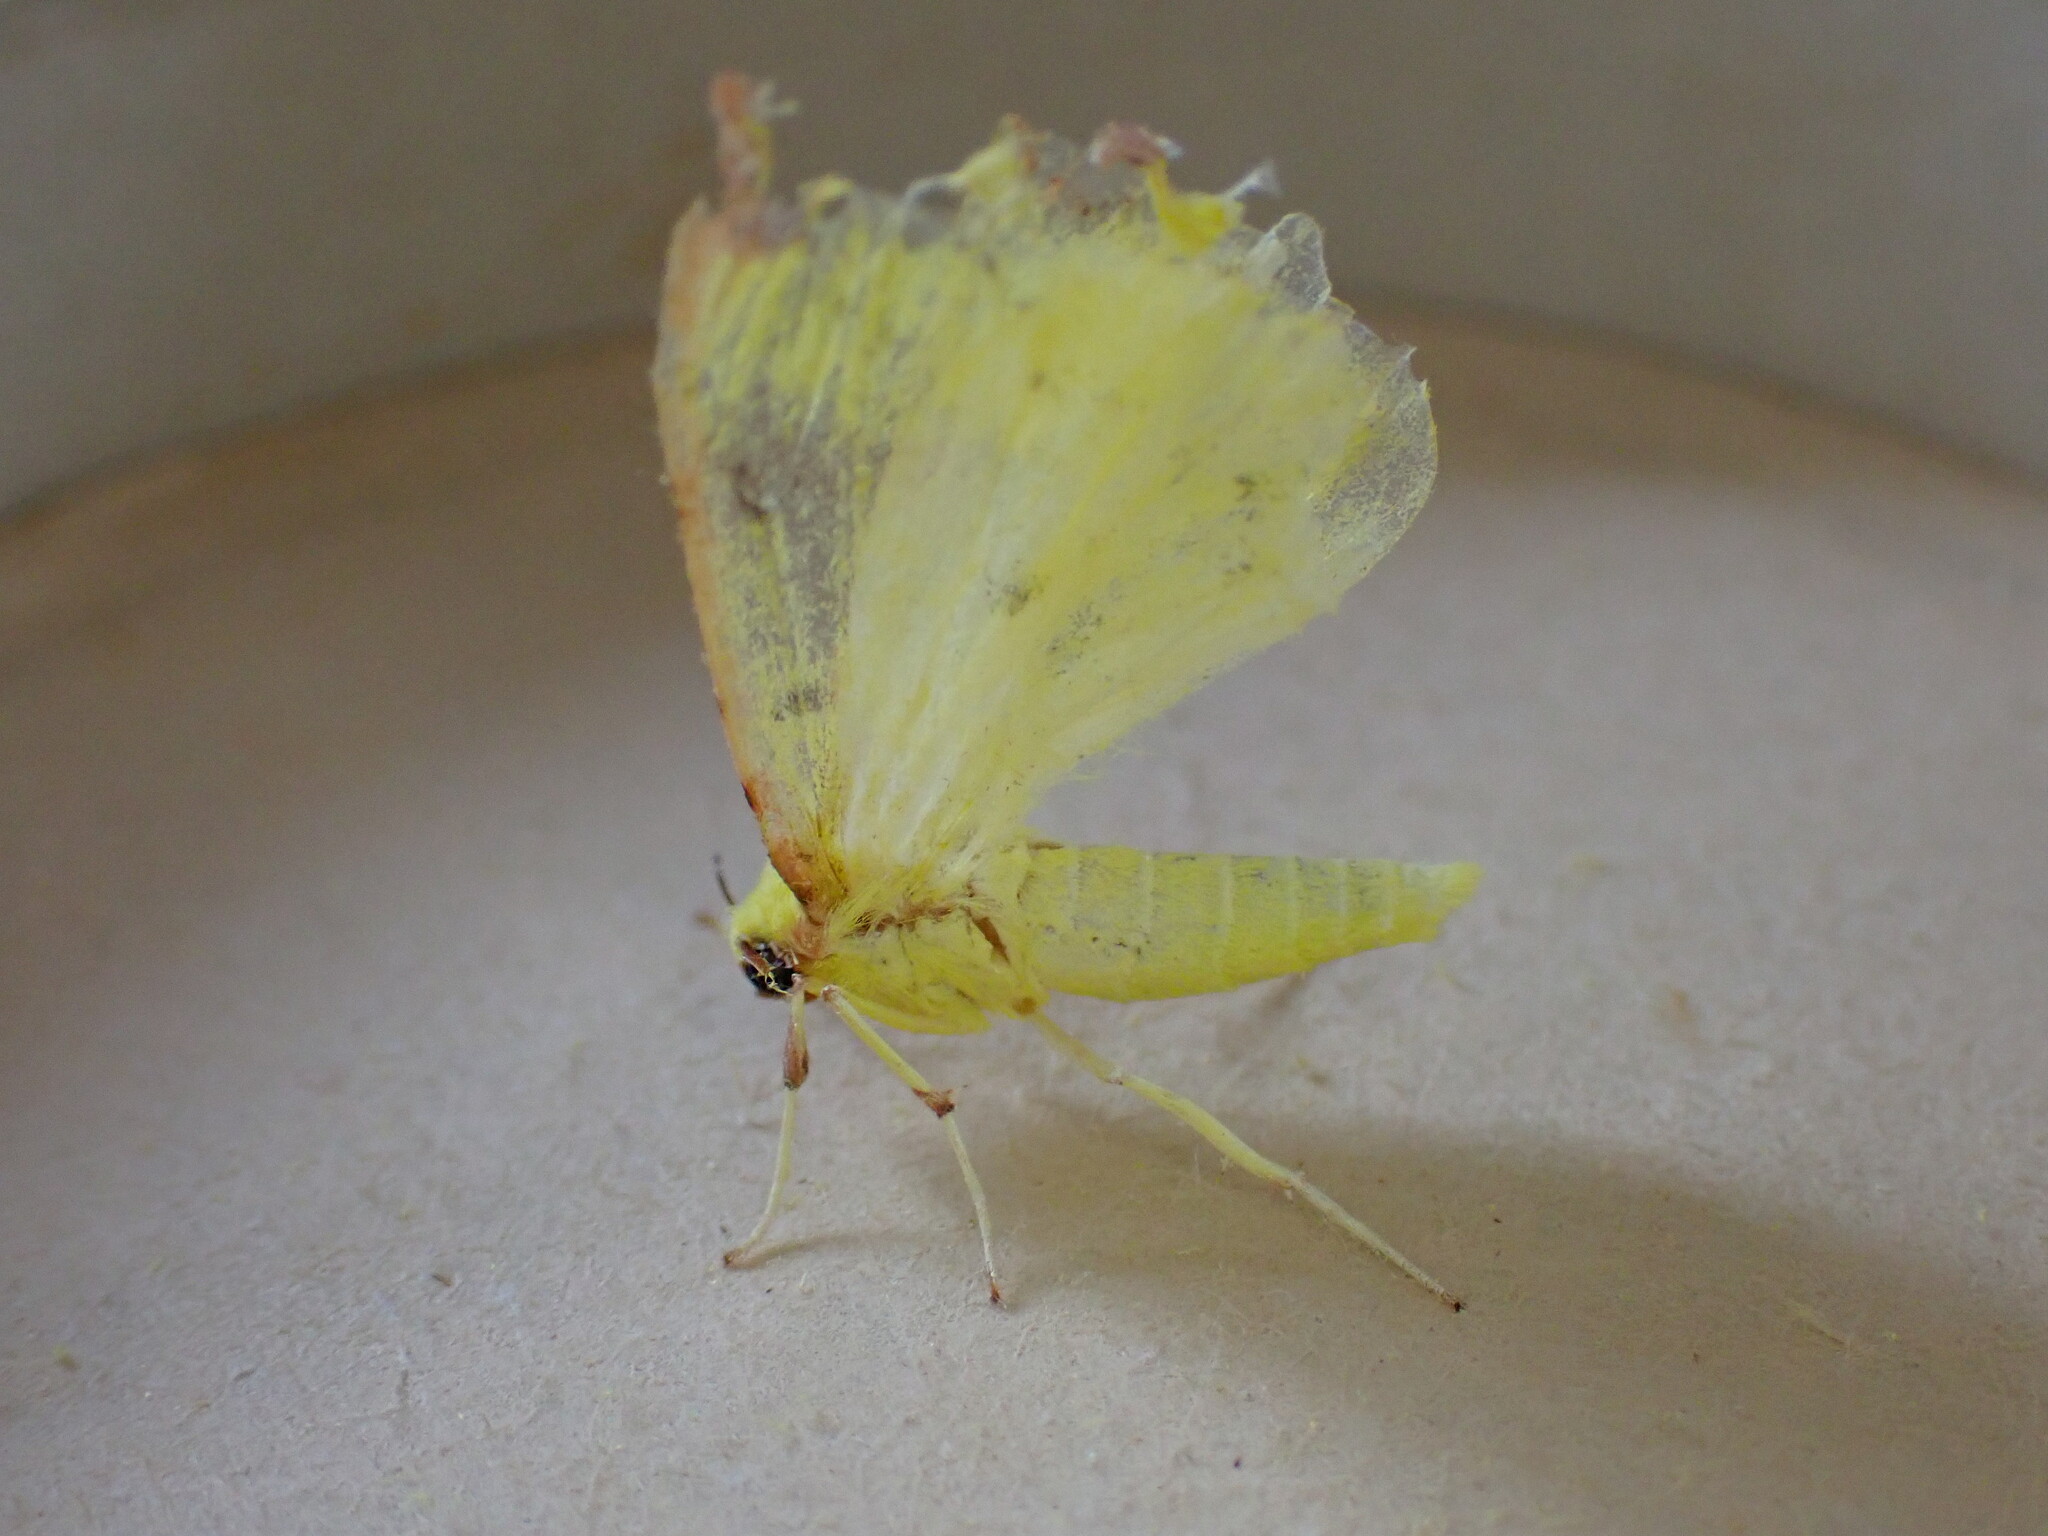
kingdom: Animalia
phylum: Arthropoda
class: Insecta
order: Lepidoptera
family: Geometridae
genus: Opisthograptis
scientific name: Opisthograptis luteolata
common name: Brimstone moth
